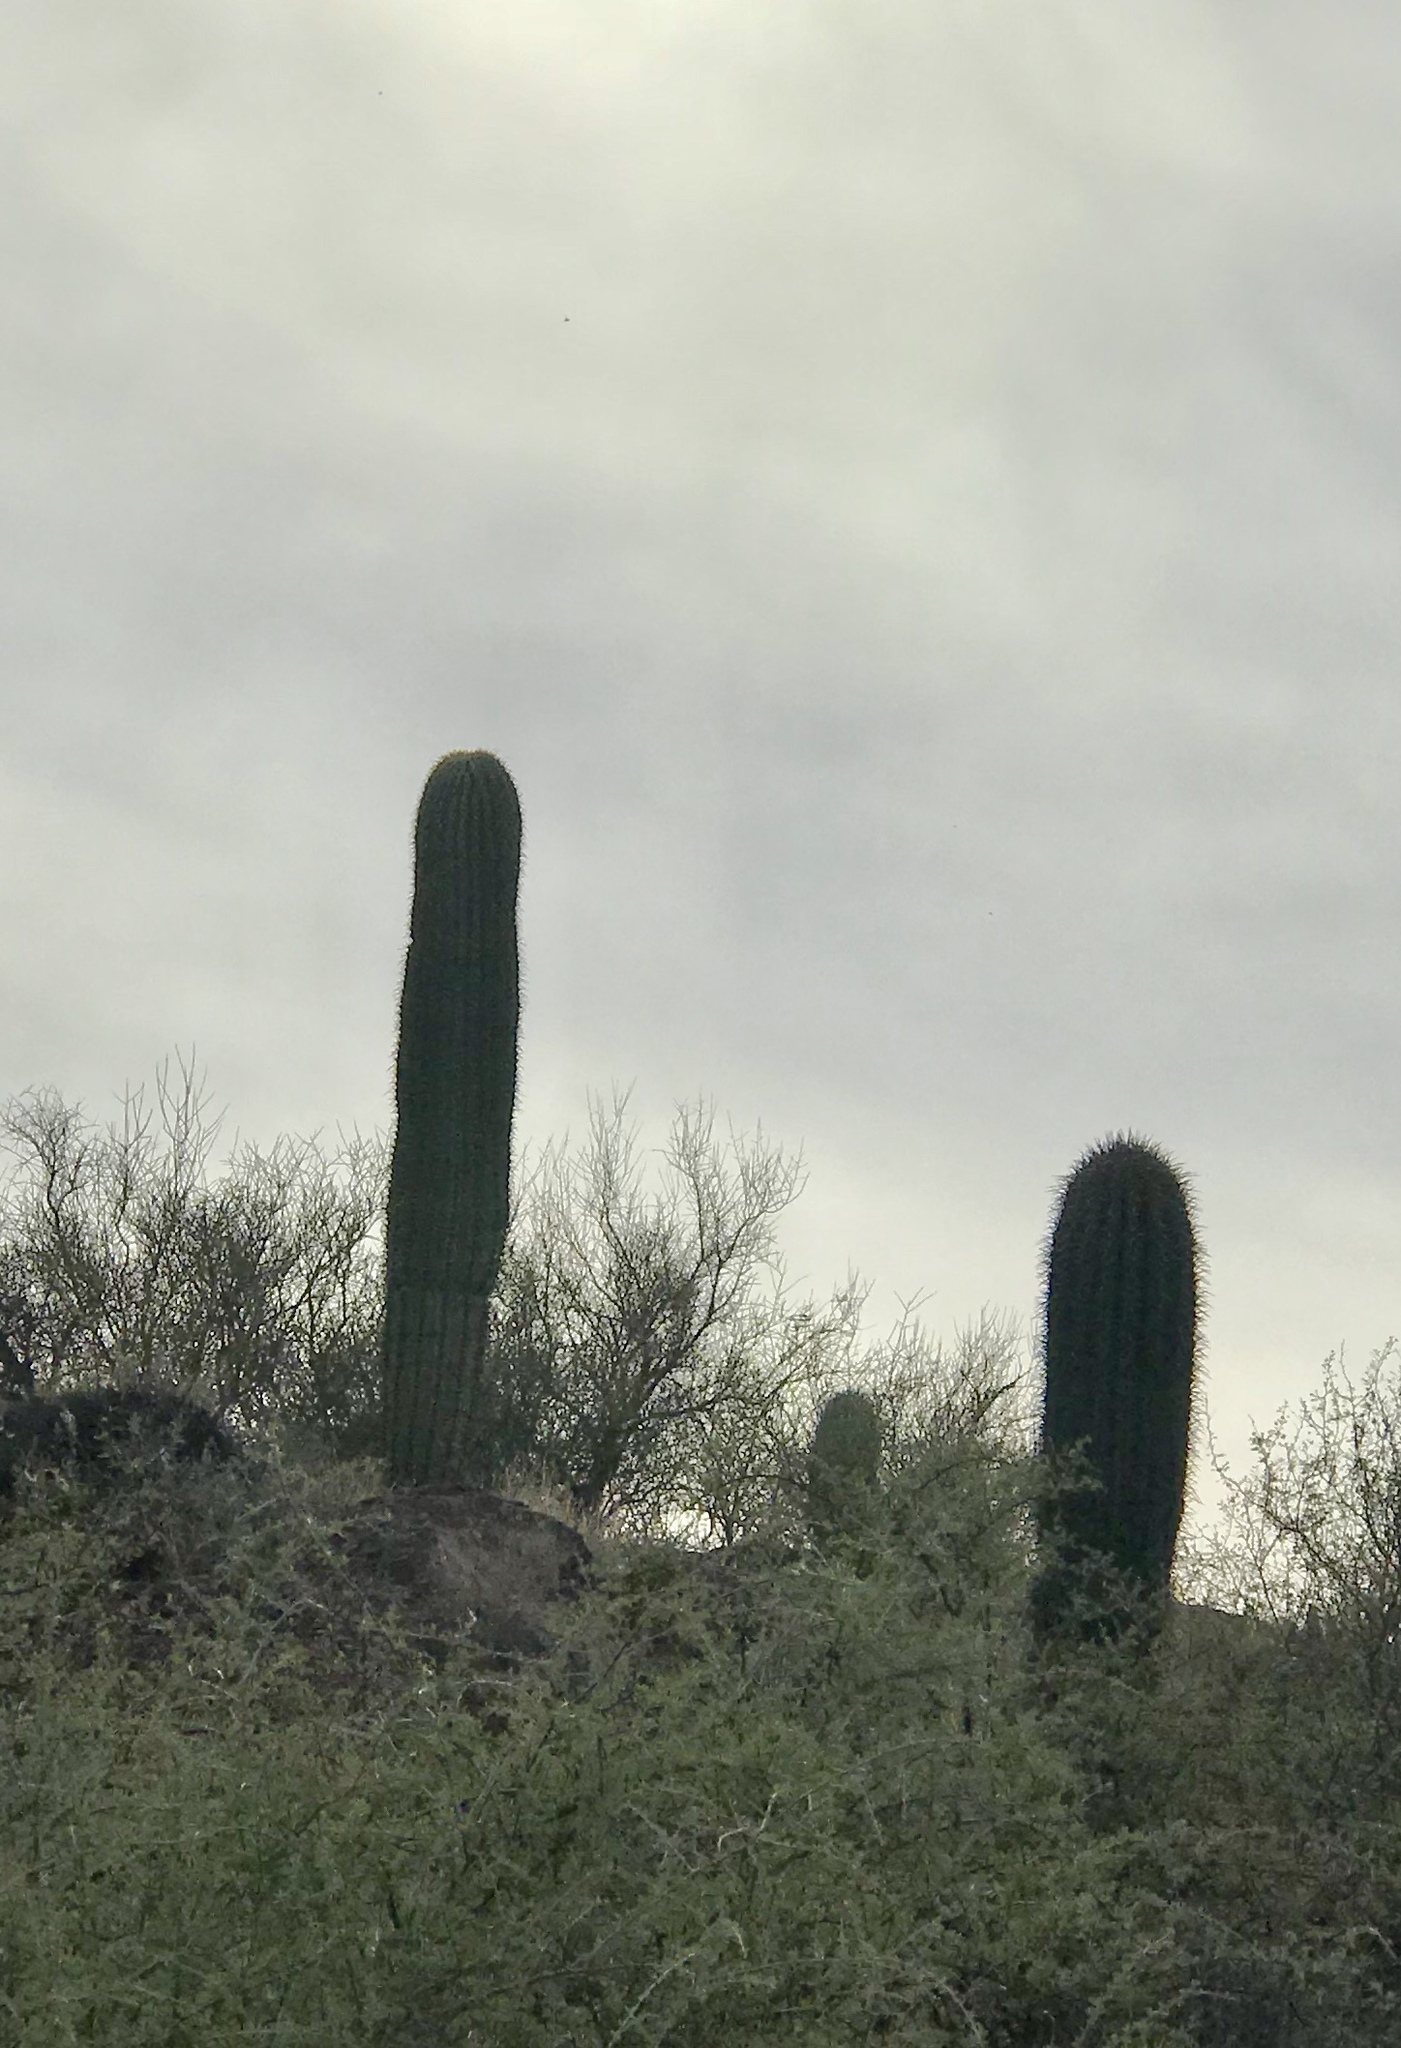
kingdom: Plantae
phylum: Tracheophyta
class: Magnoliopsida
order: Caryophyllales
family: Cactaceae
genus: Carnegiea
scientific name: Carnegiea gigantea
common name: Saguaro
